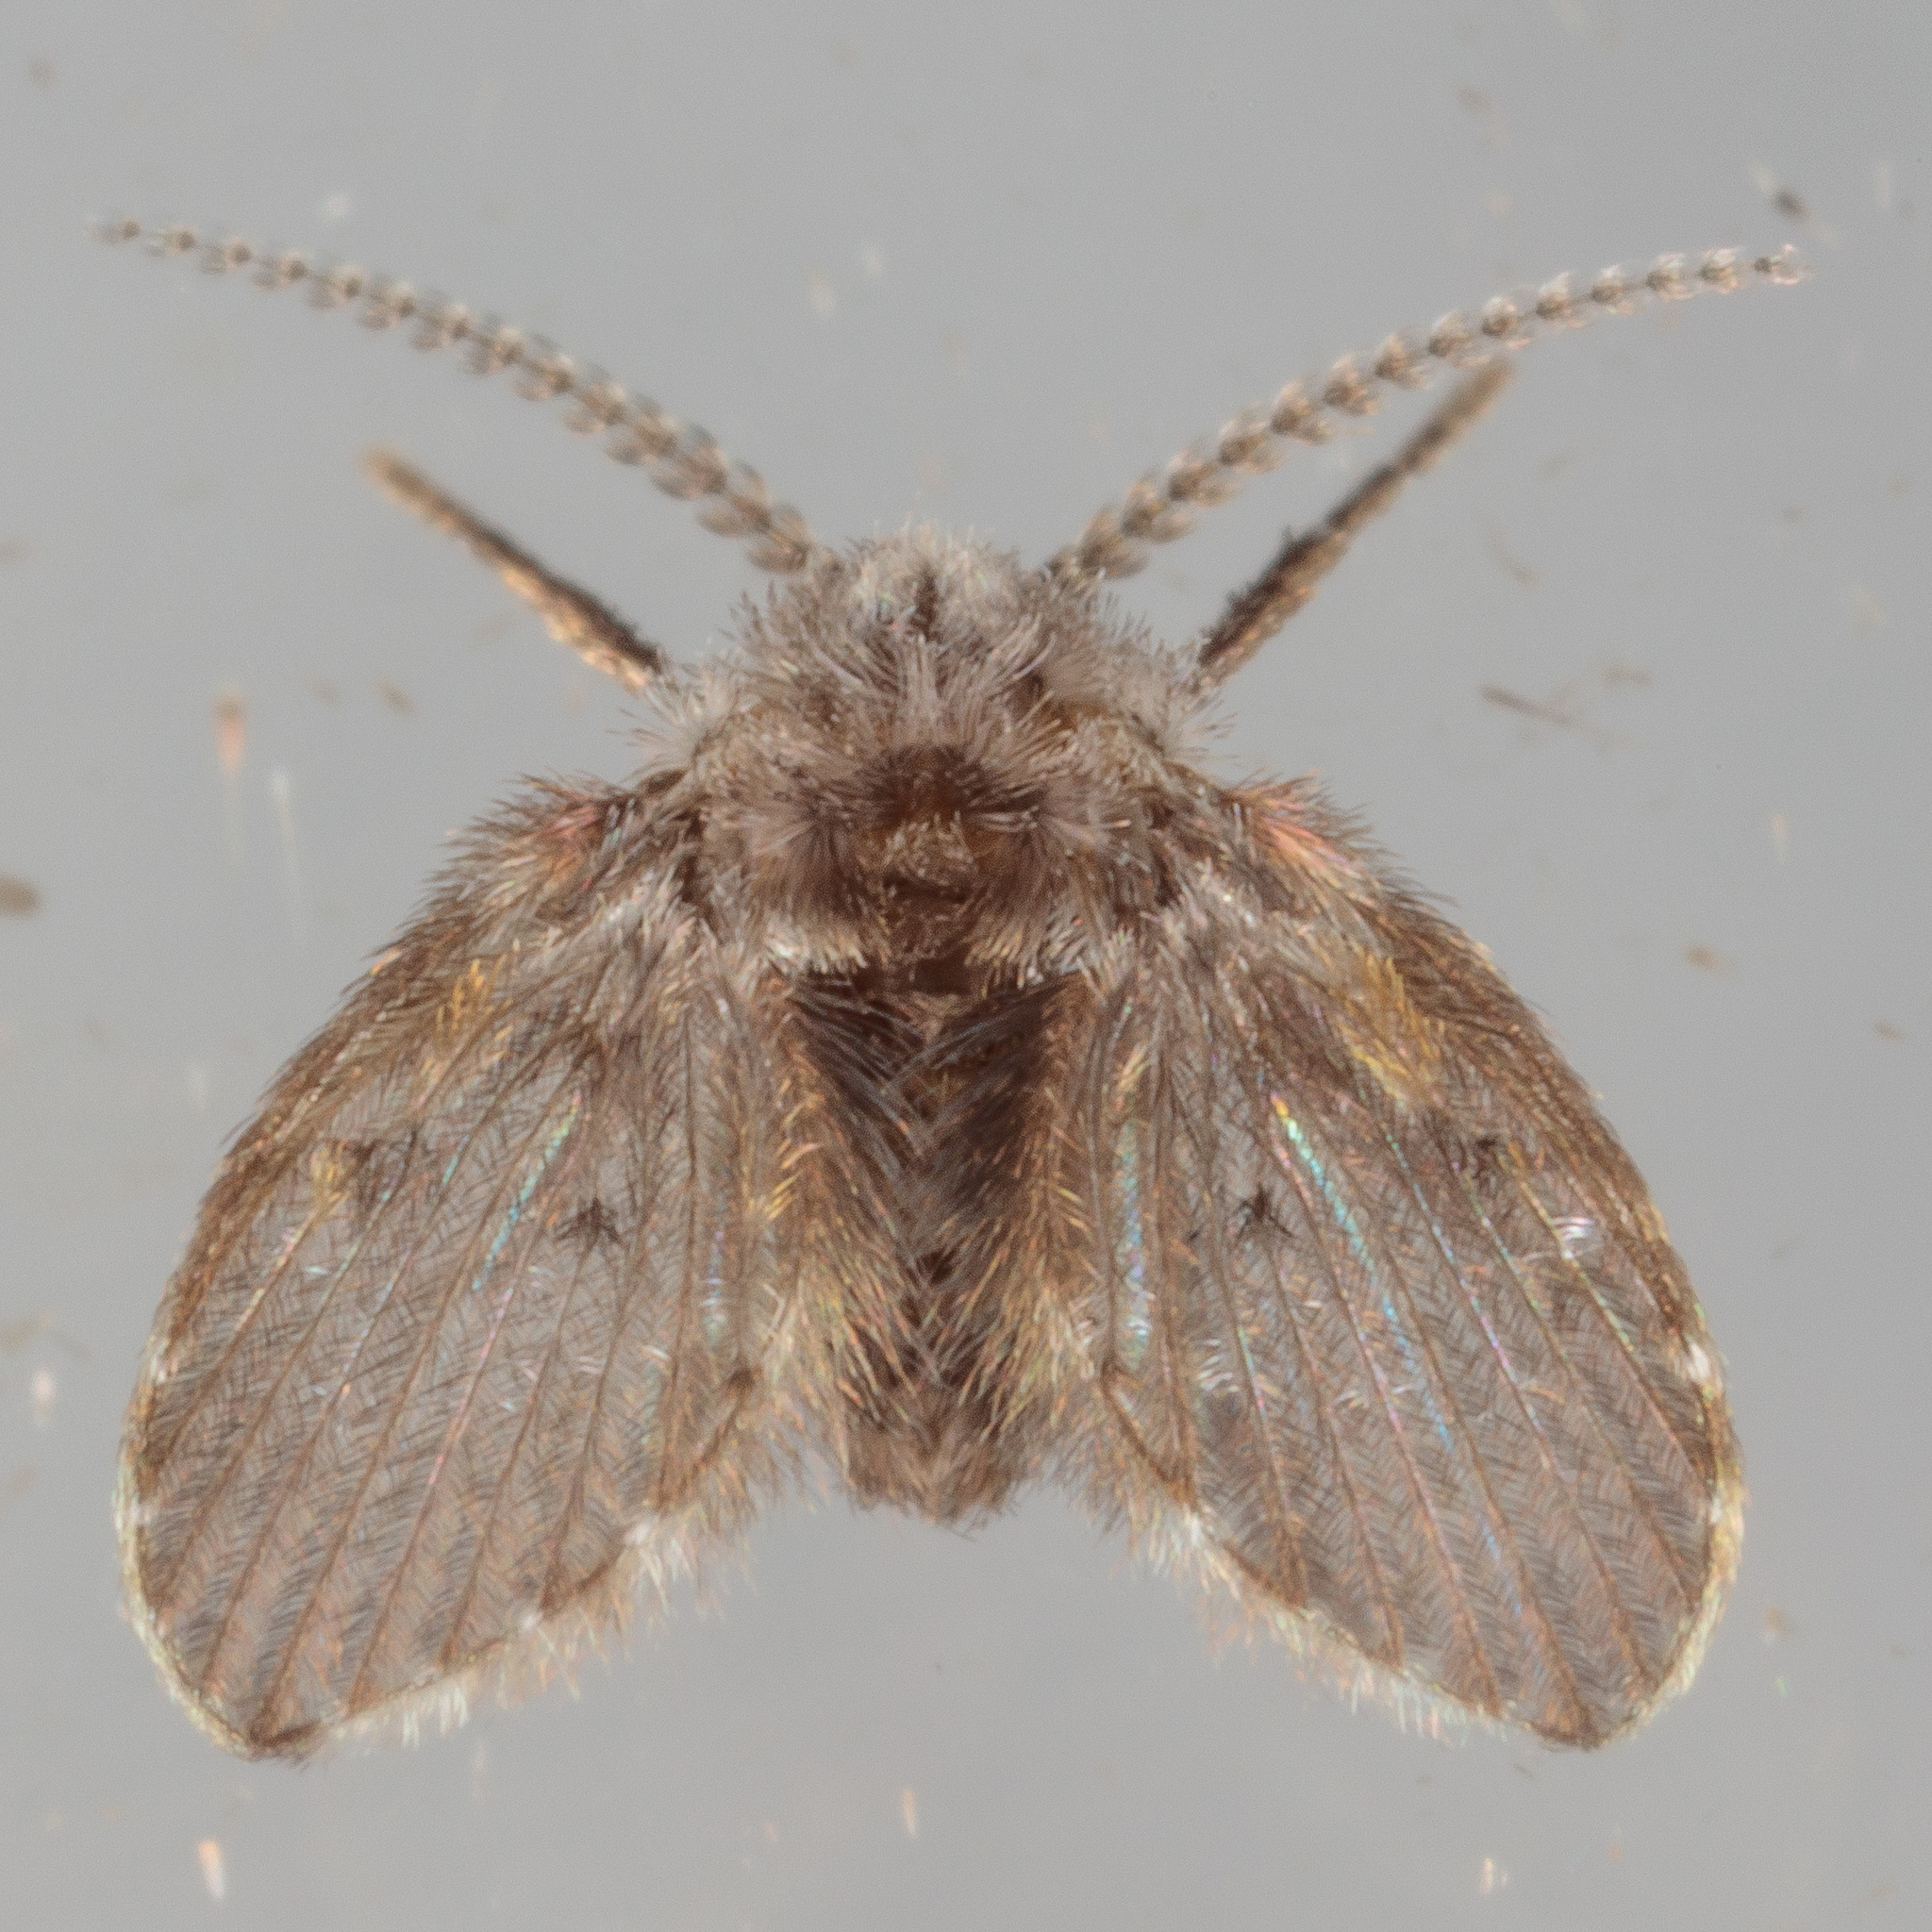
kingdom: Animalia
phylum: Arthropoda
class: Insecta
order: Diptera
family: Psychodidae
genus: Clogmia
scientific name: Clogmia albipunctatus
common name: White-spotted moth fly
